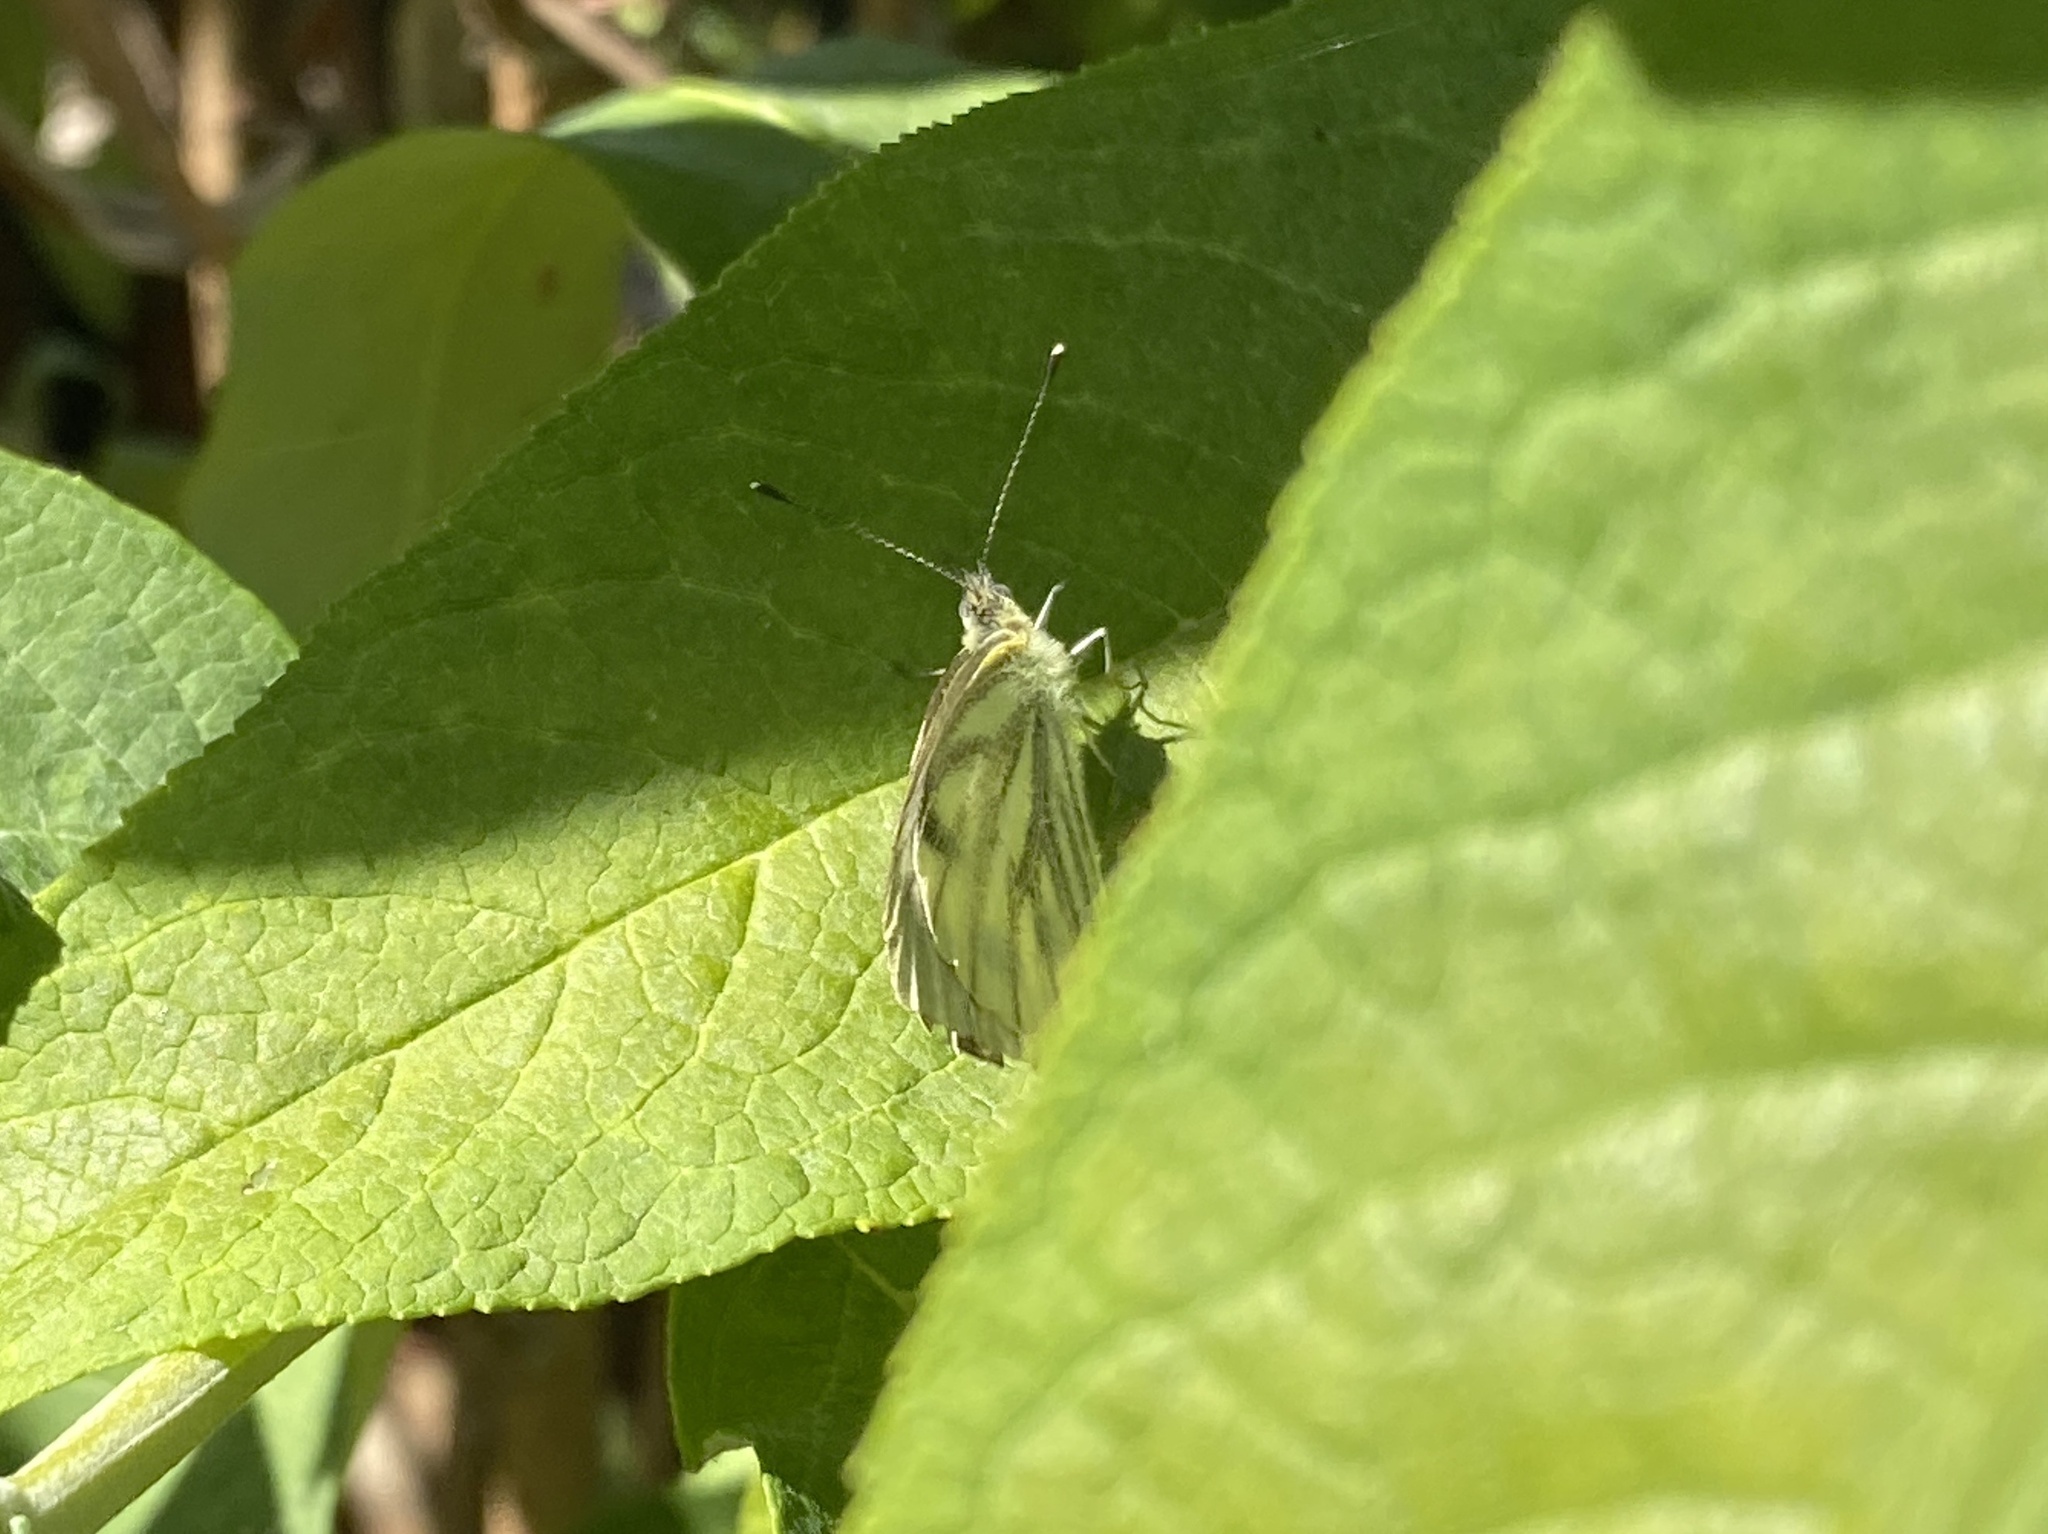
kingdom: Animalia
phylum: Arthropoda
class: Insecta
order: Lepidoptera
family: Pieridae
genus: Pieris
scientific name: Pieris napi
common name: Green-veined white
